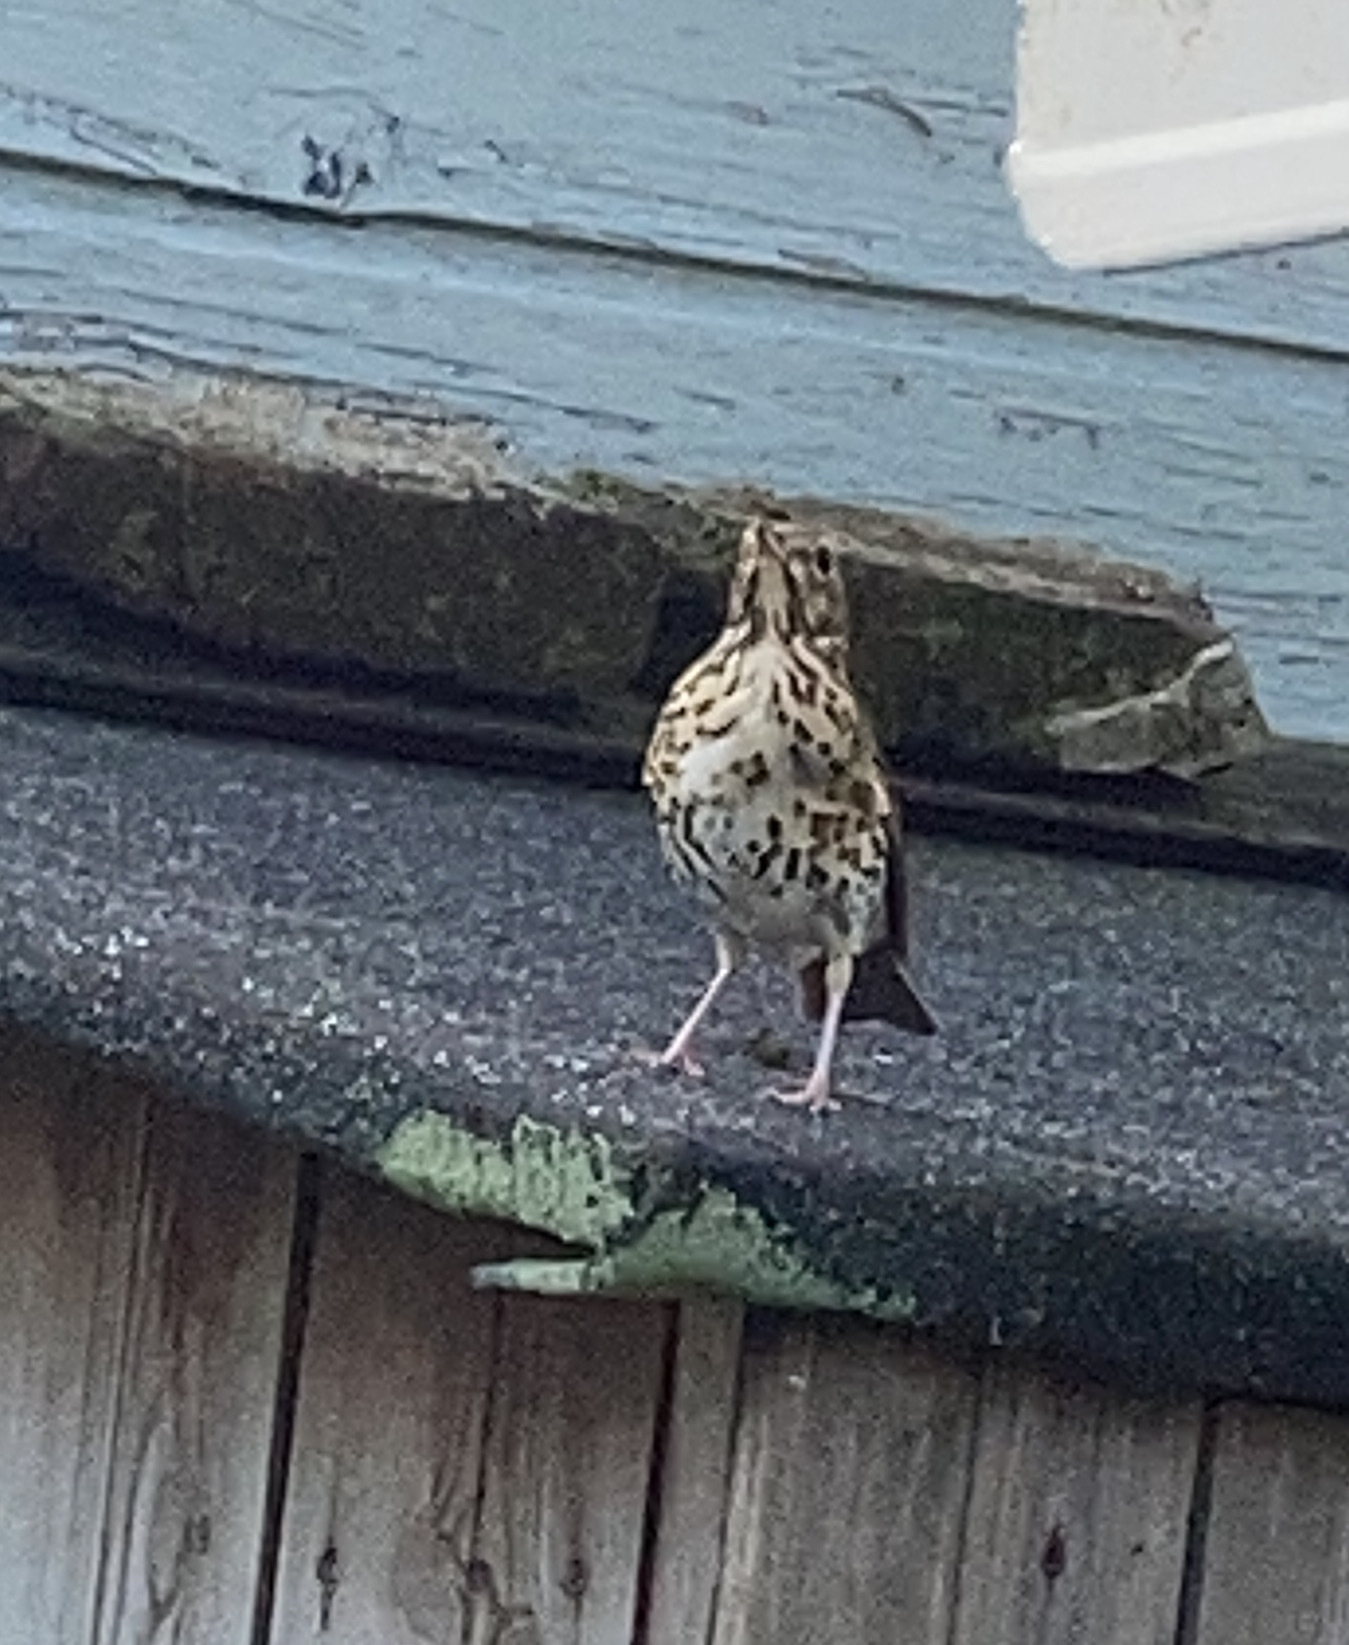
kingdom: Animalia
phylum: Chordata
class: Aves
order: Passeriformes
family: Turdidae
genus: Turdus
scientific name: Turdus philomelos
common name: Song thrush
